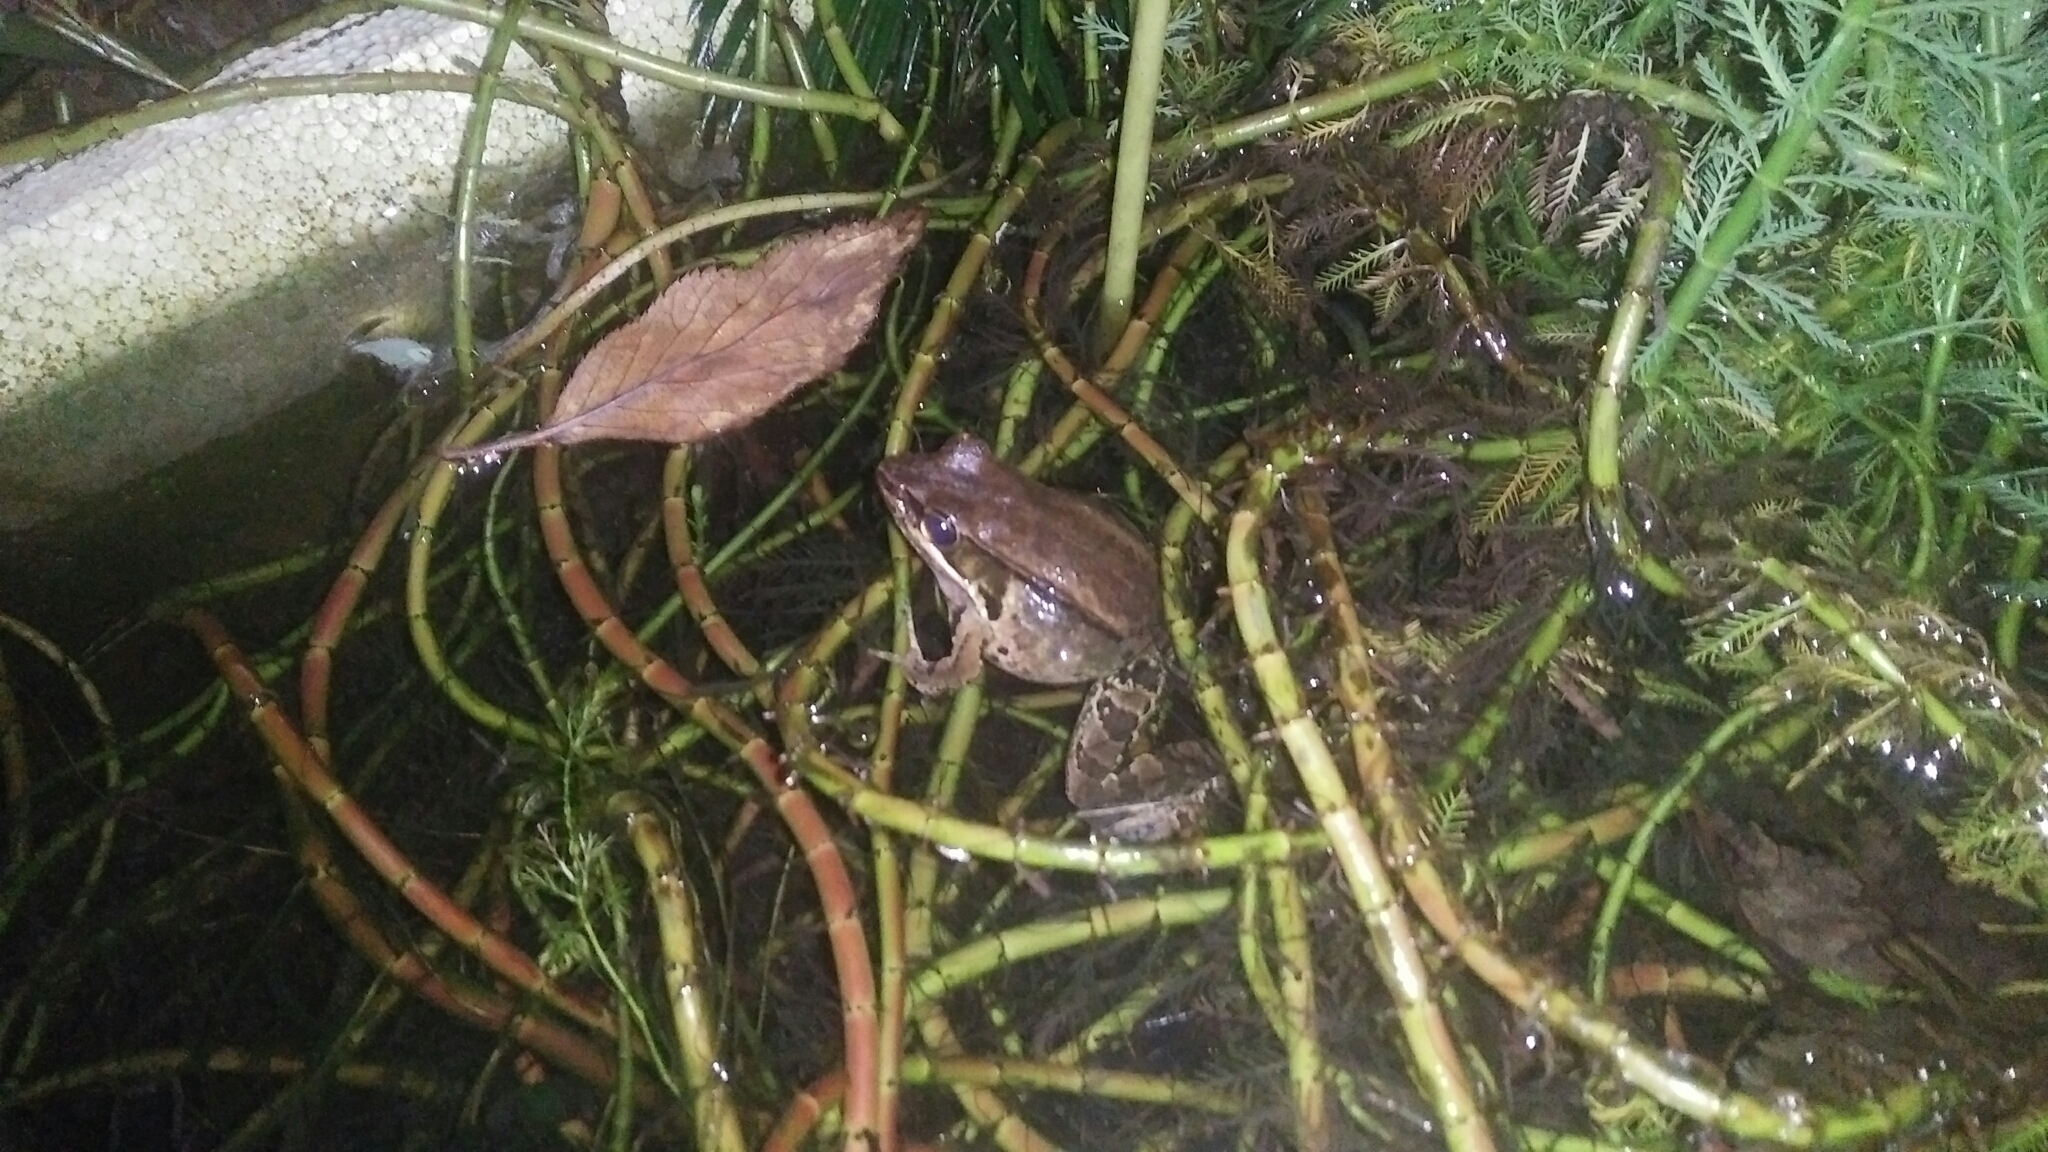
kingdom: Animalia
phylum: Chordata
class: Amphibia
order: Anura
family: Ranidae
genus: Nidirana
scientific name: Nidirana adenopleura
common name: Olive frog
